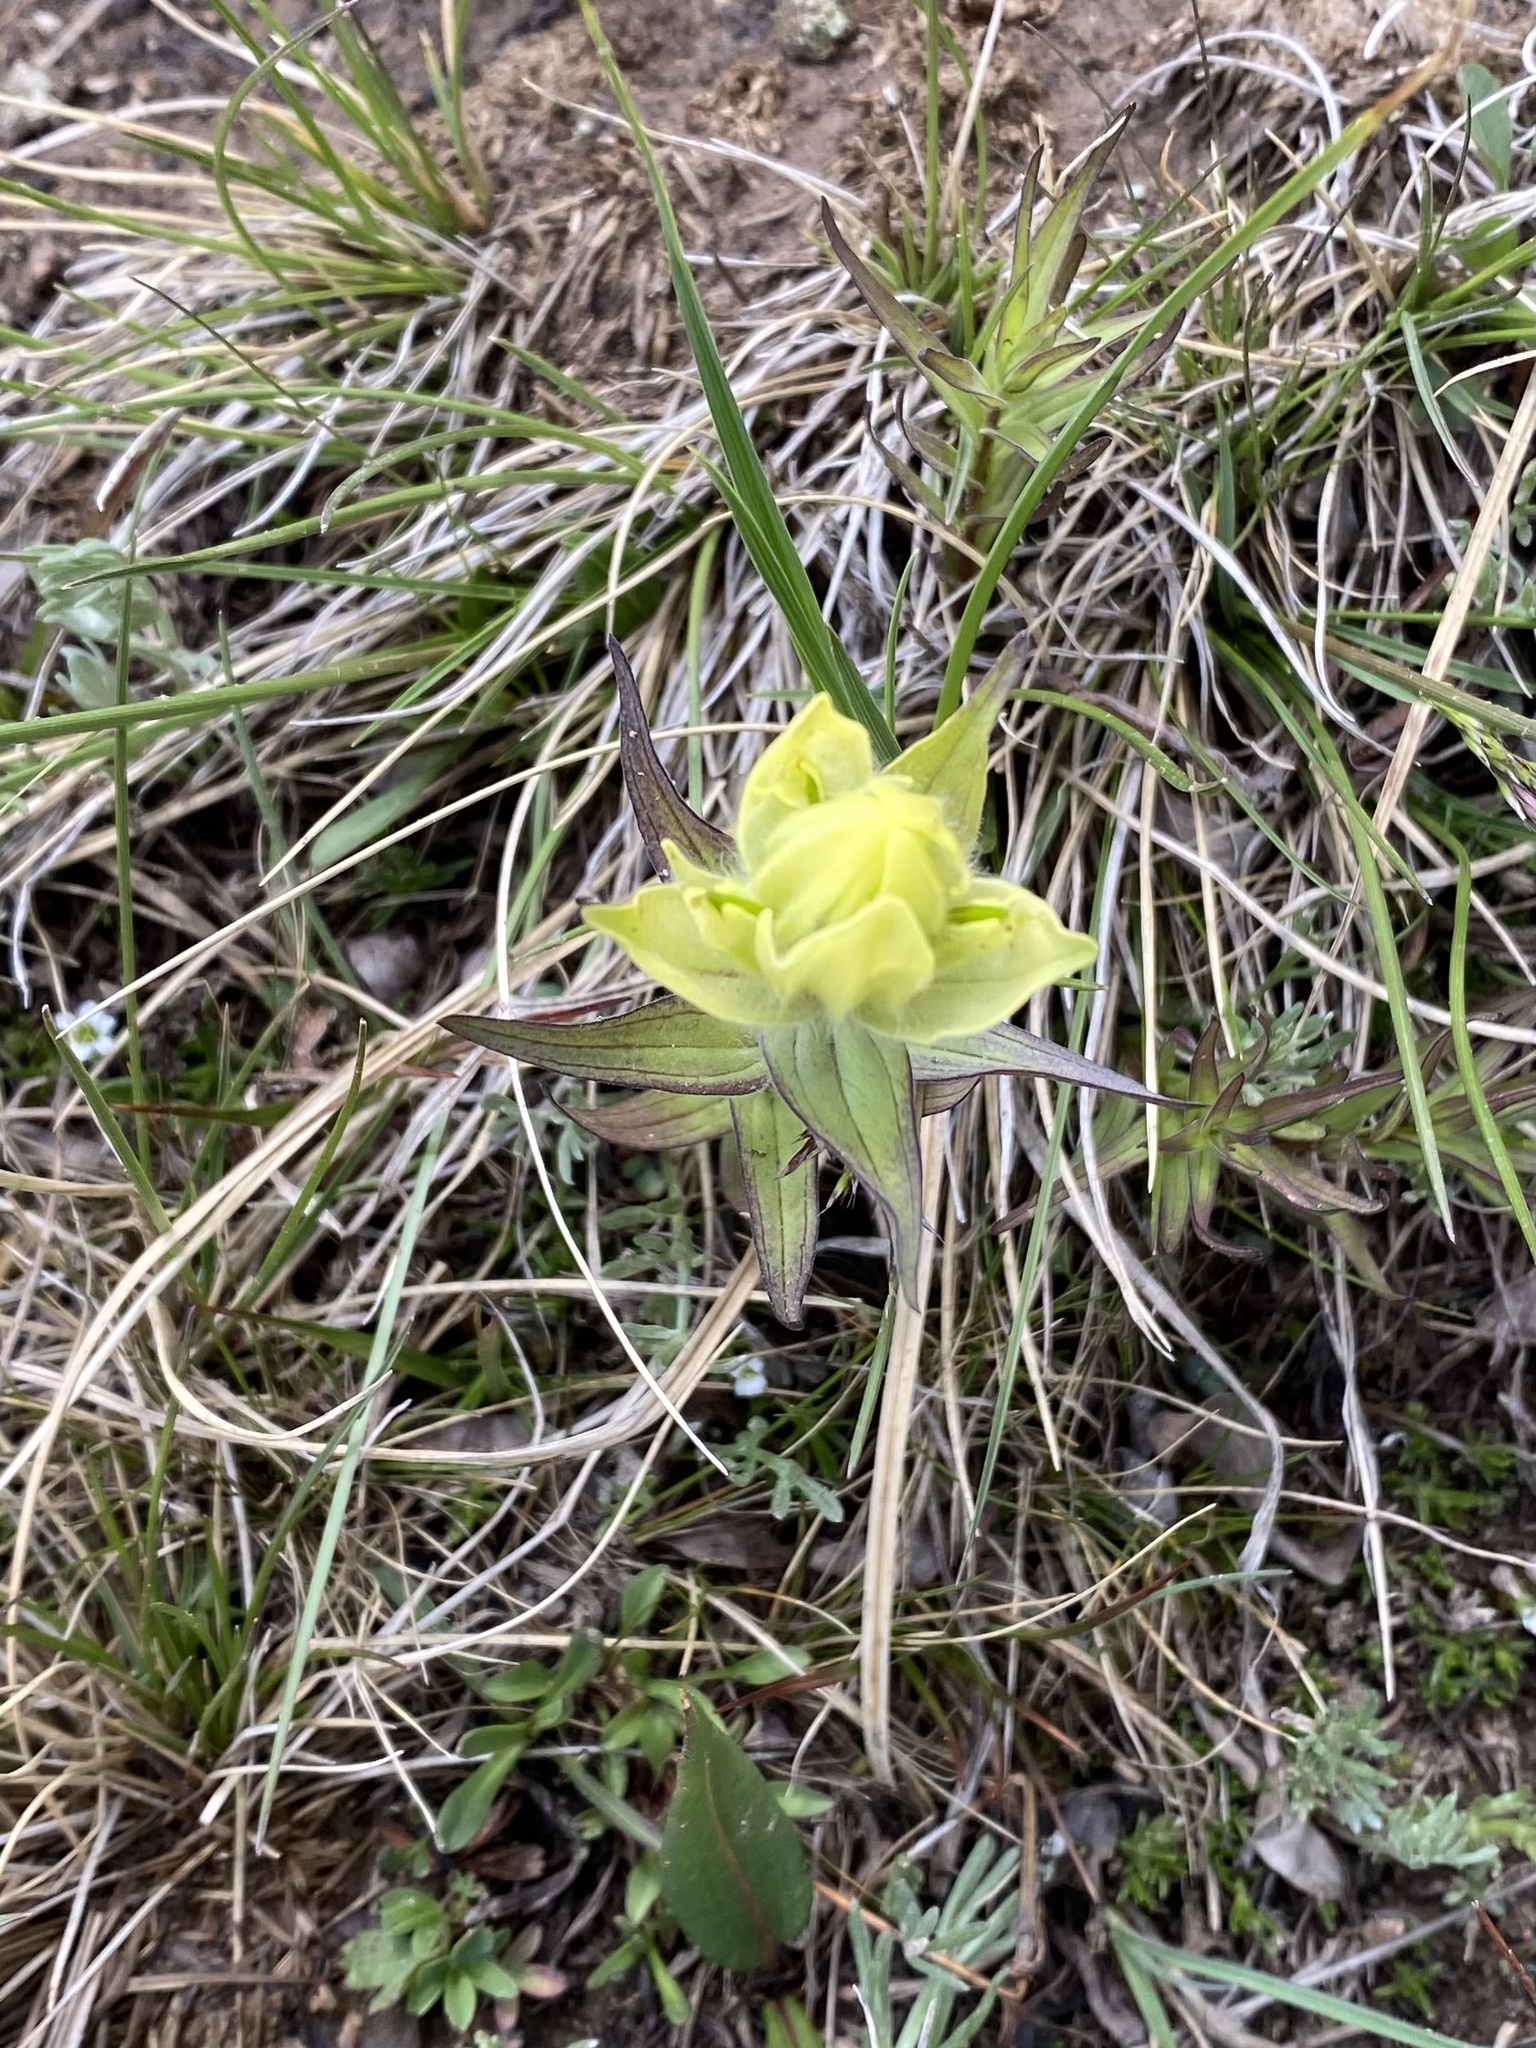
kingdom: Plantae
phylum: Tracheophyta
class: Magnoliopsida
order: Lamiales
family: Orobanchaceae
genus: Castilleja
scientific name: Castilleja occidentalis
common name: Western paintbrush
